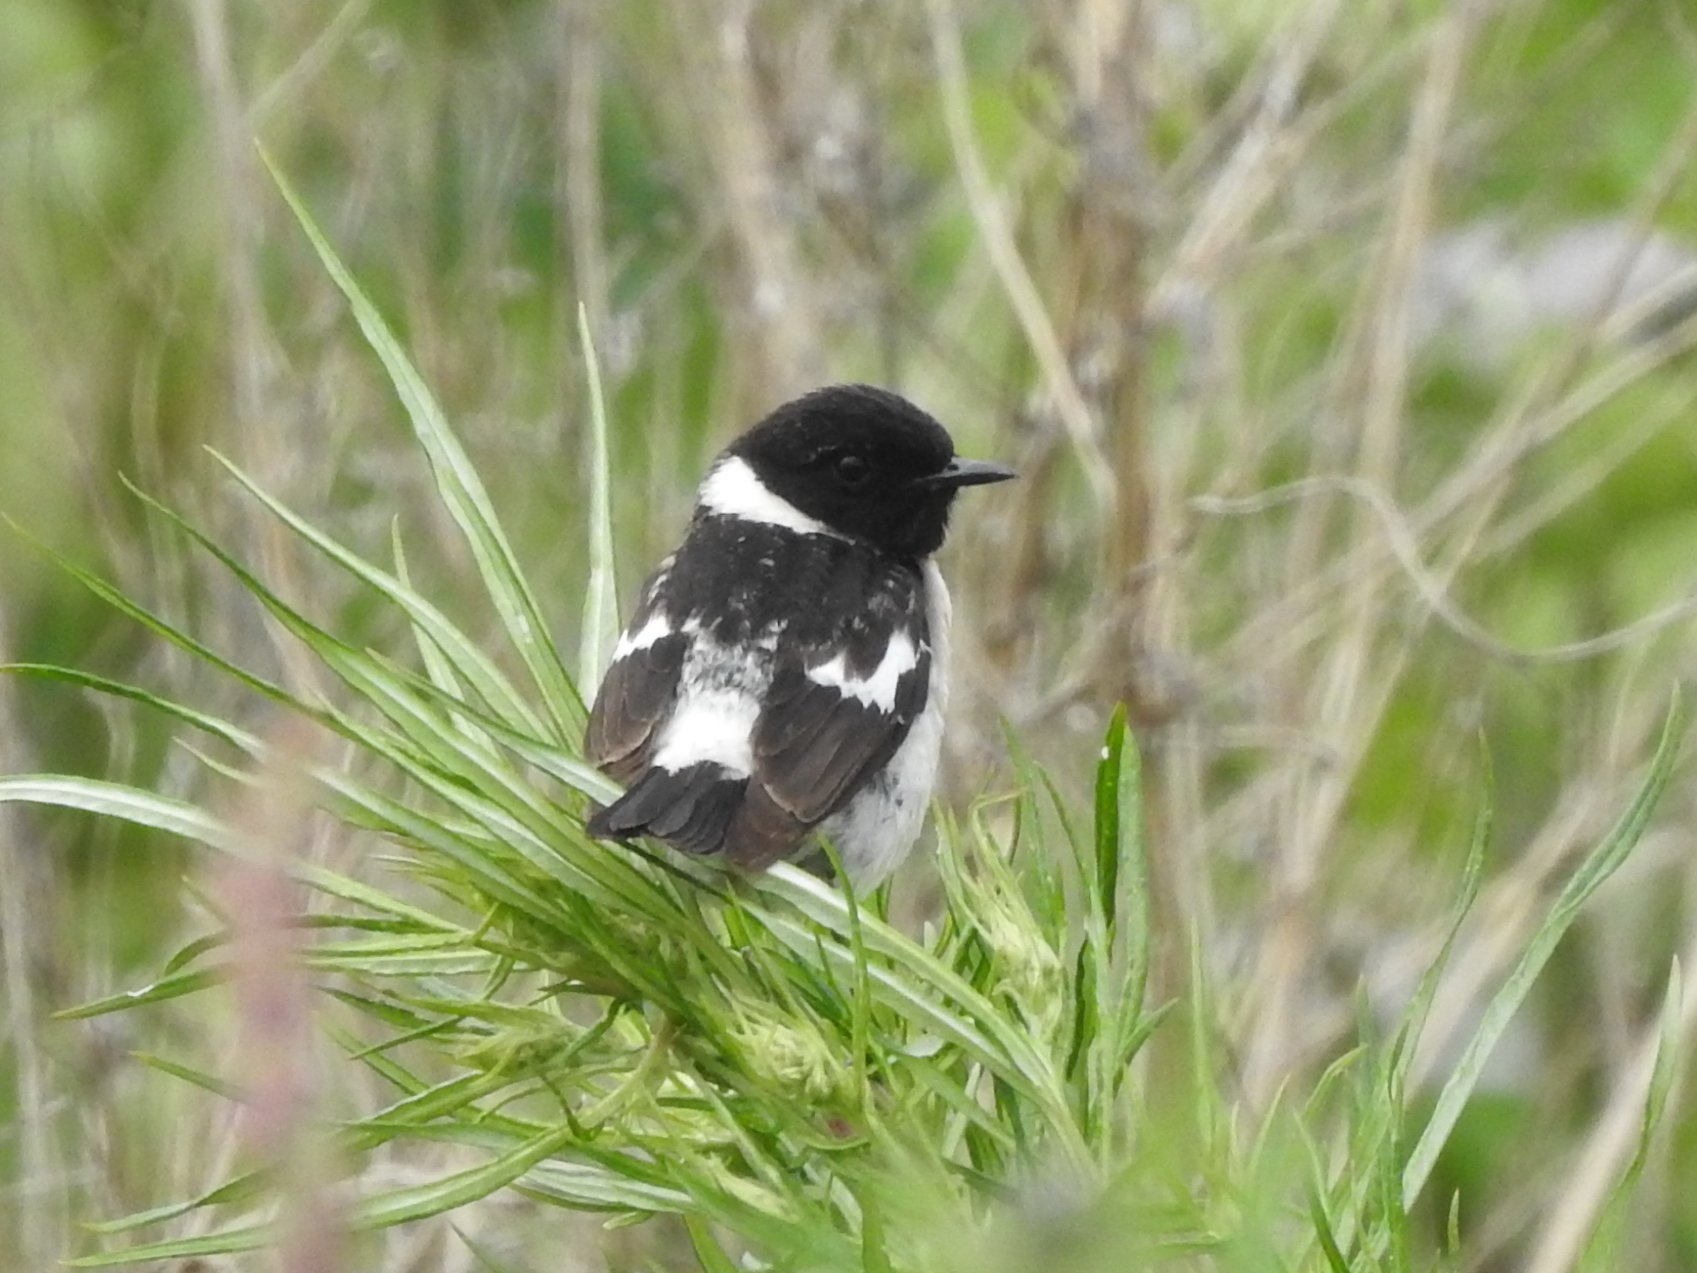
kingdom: Animalia
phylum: Chordata
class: Aves
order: Passeriformes
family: Muscicapidae
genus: Saxicola
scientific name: Saxicola maurus
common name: Siberian stonechat
